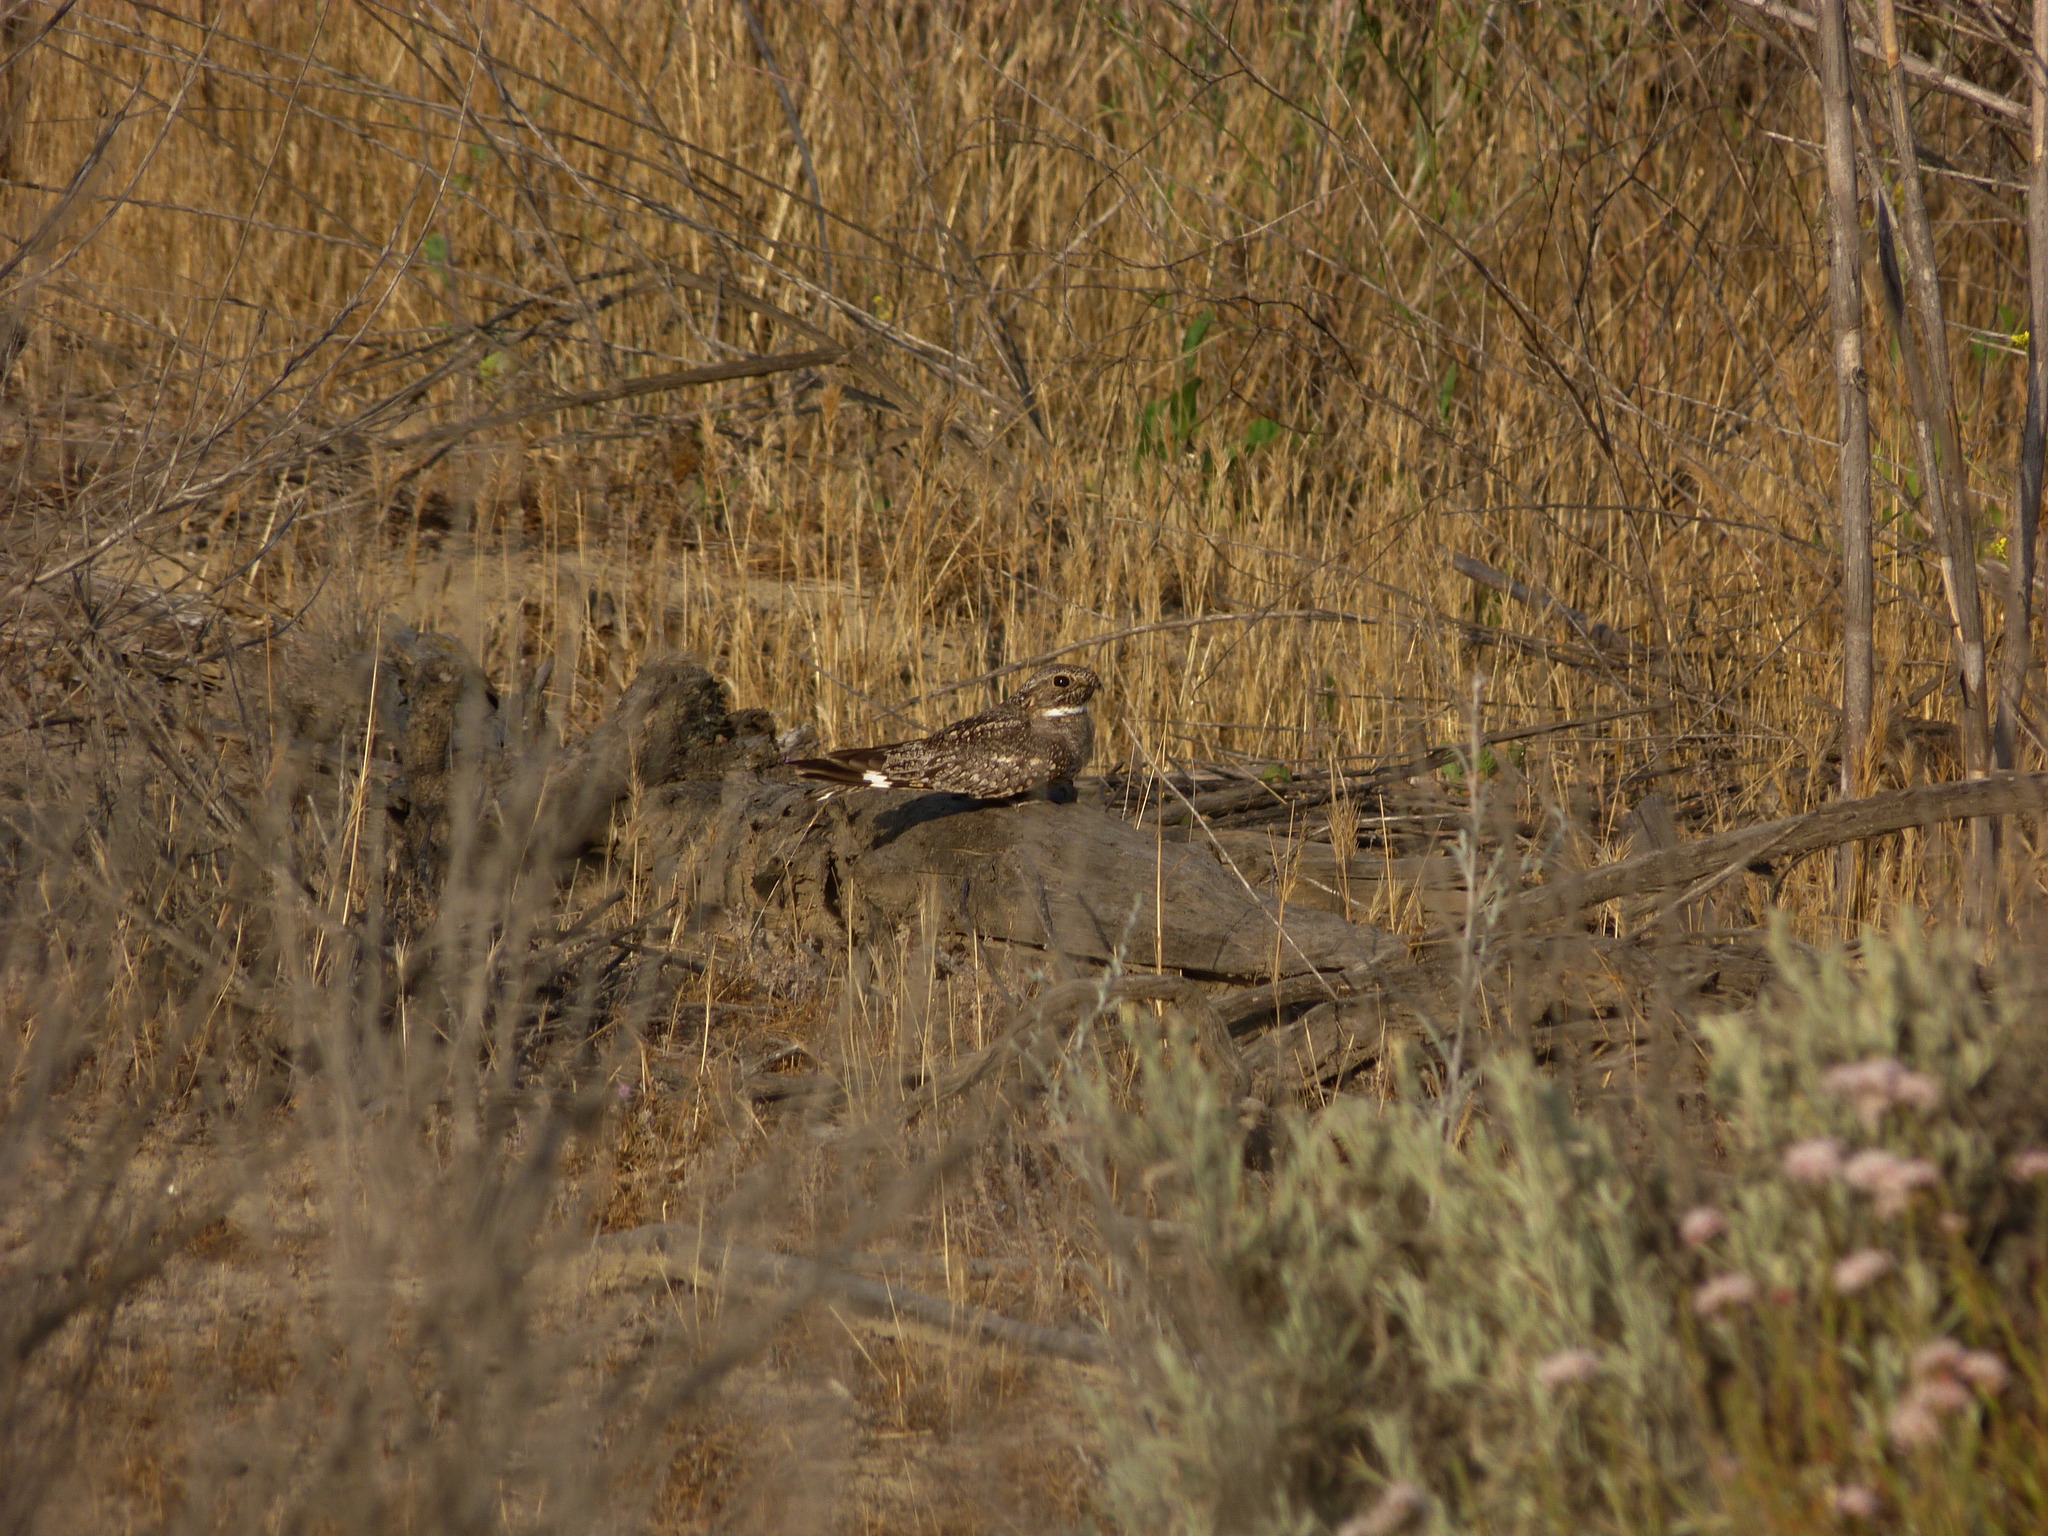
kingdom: Animalia
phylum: Chordata
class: Aves
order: Caprimulgiformes
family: Caprimulgidae
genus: Chordeiles
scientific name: Chordeiles acutipennis
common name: Lesser nighthawk
